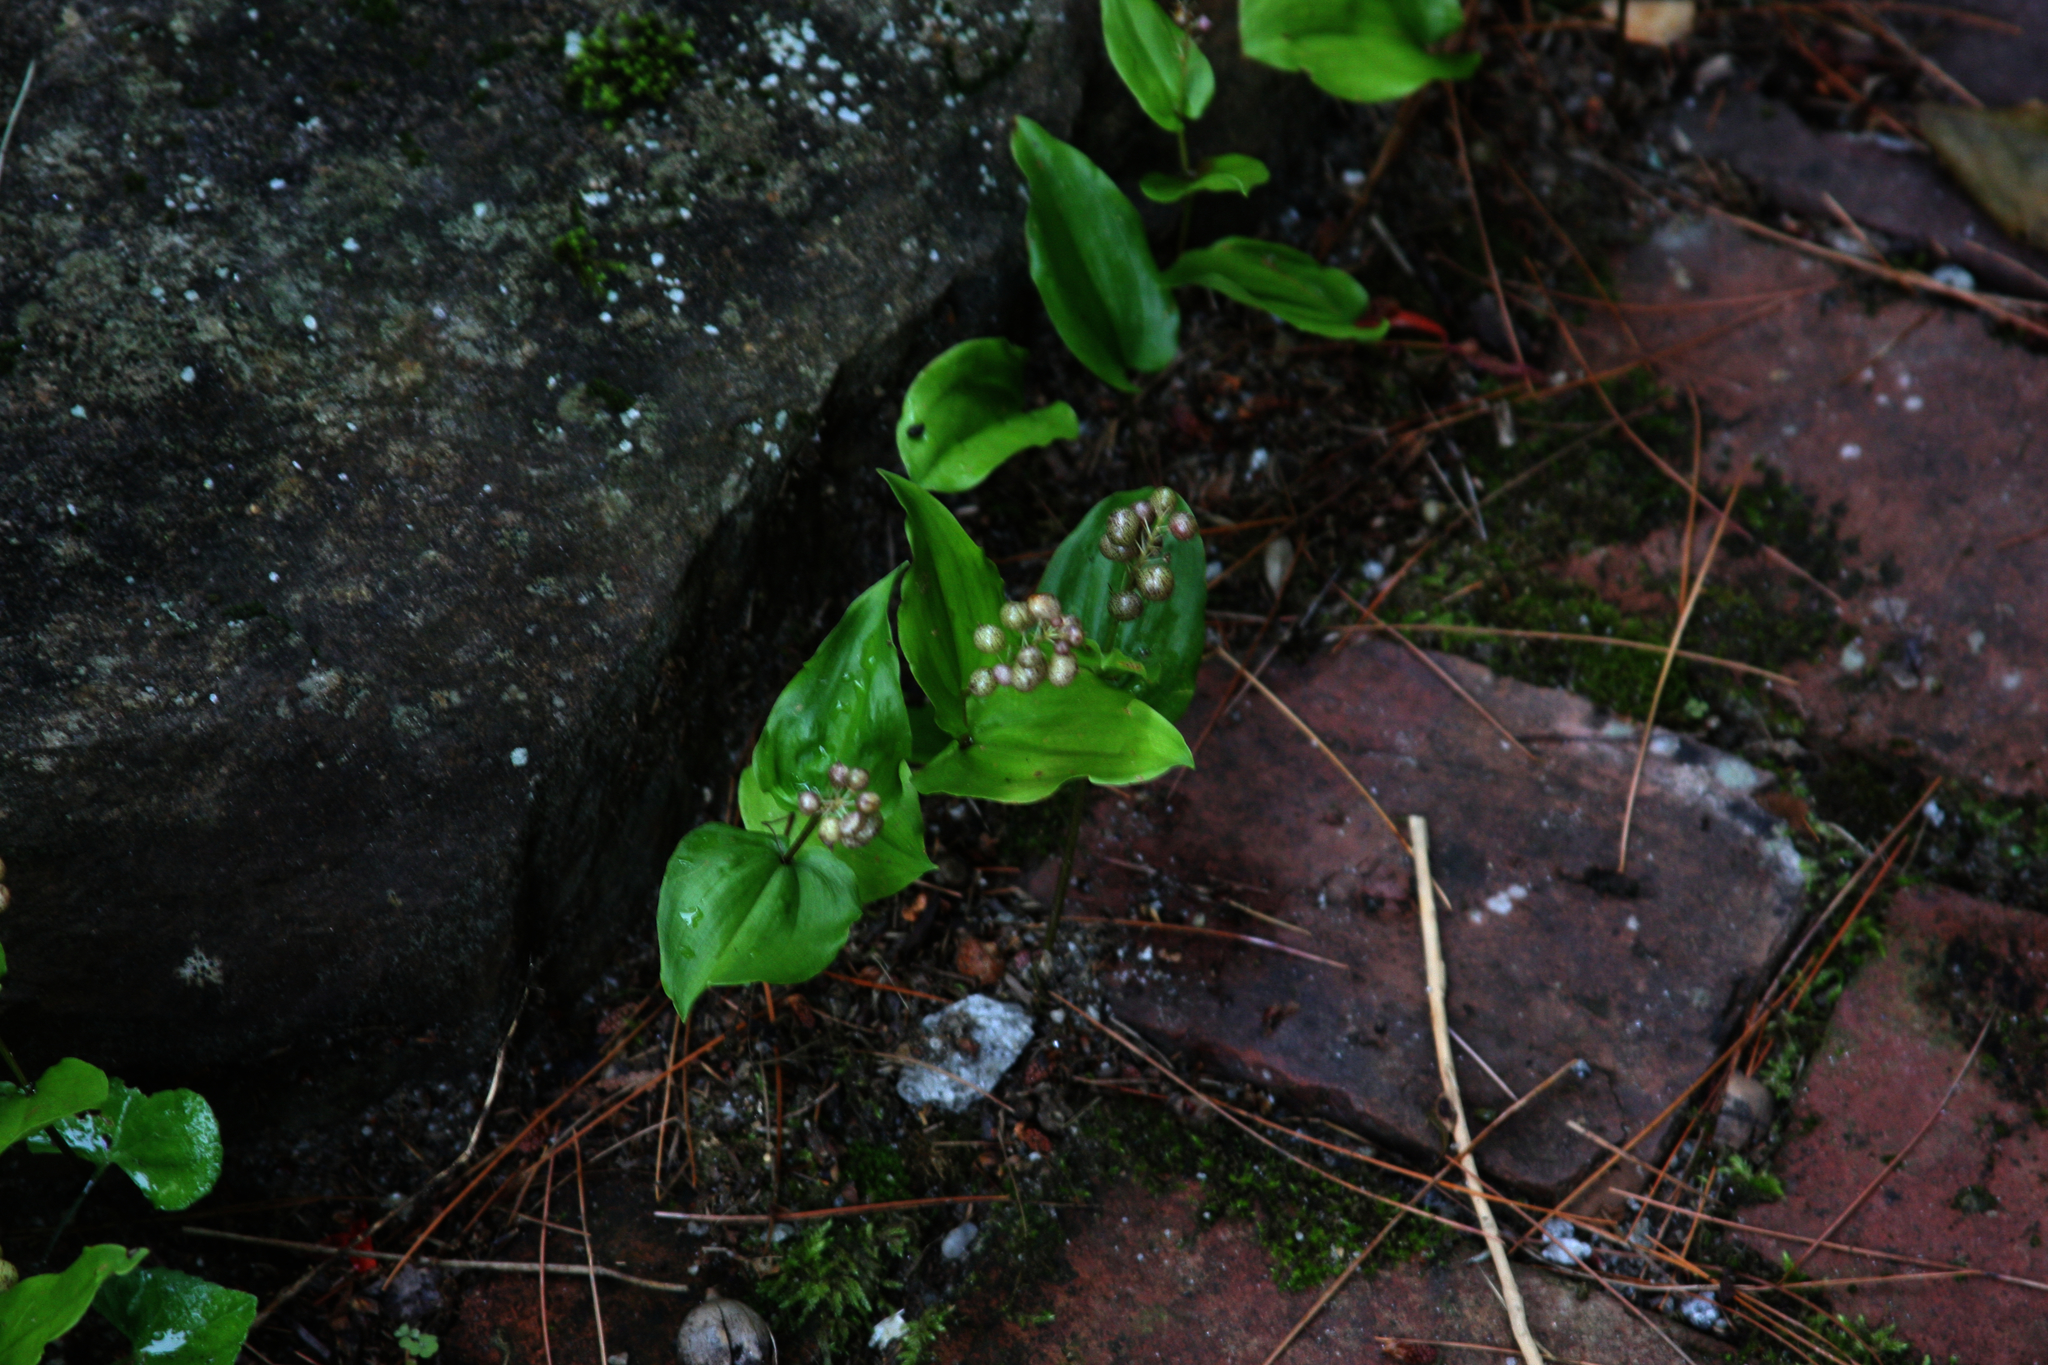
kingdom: Plantae
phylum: Tracheophyta
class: Liliopsida
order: Asparagales
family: Asparagaceae
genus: Maianthemum
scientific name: Maianthemum canadense
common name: False lily-of-the-valley
